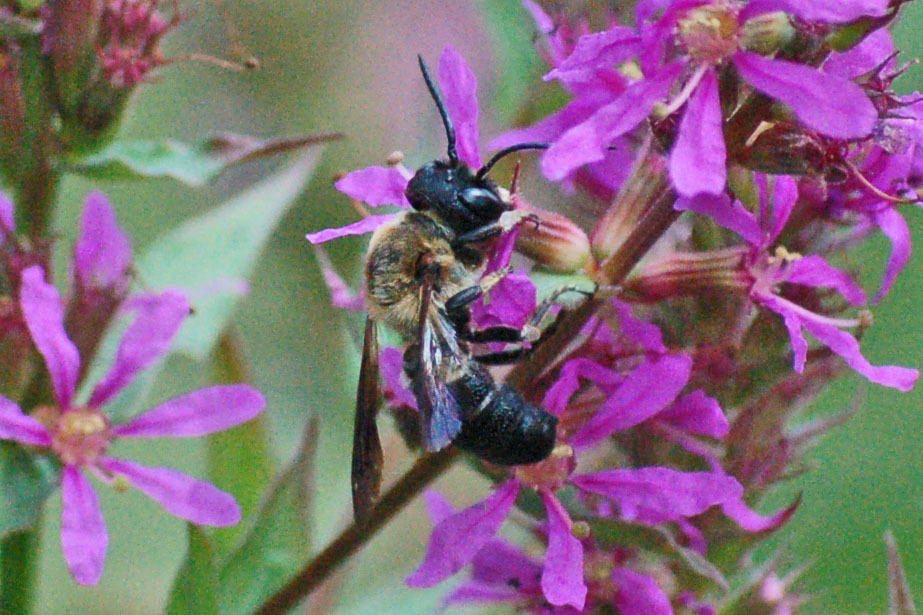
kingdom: Animalia
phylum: Arthropoda
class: Insecta
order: Hymenoptera
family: Megachilidae
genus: Megachile
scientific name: Megachile sculpturalis
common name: Sculptured resin bee
